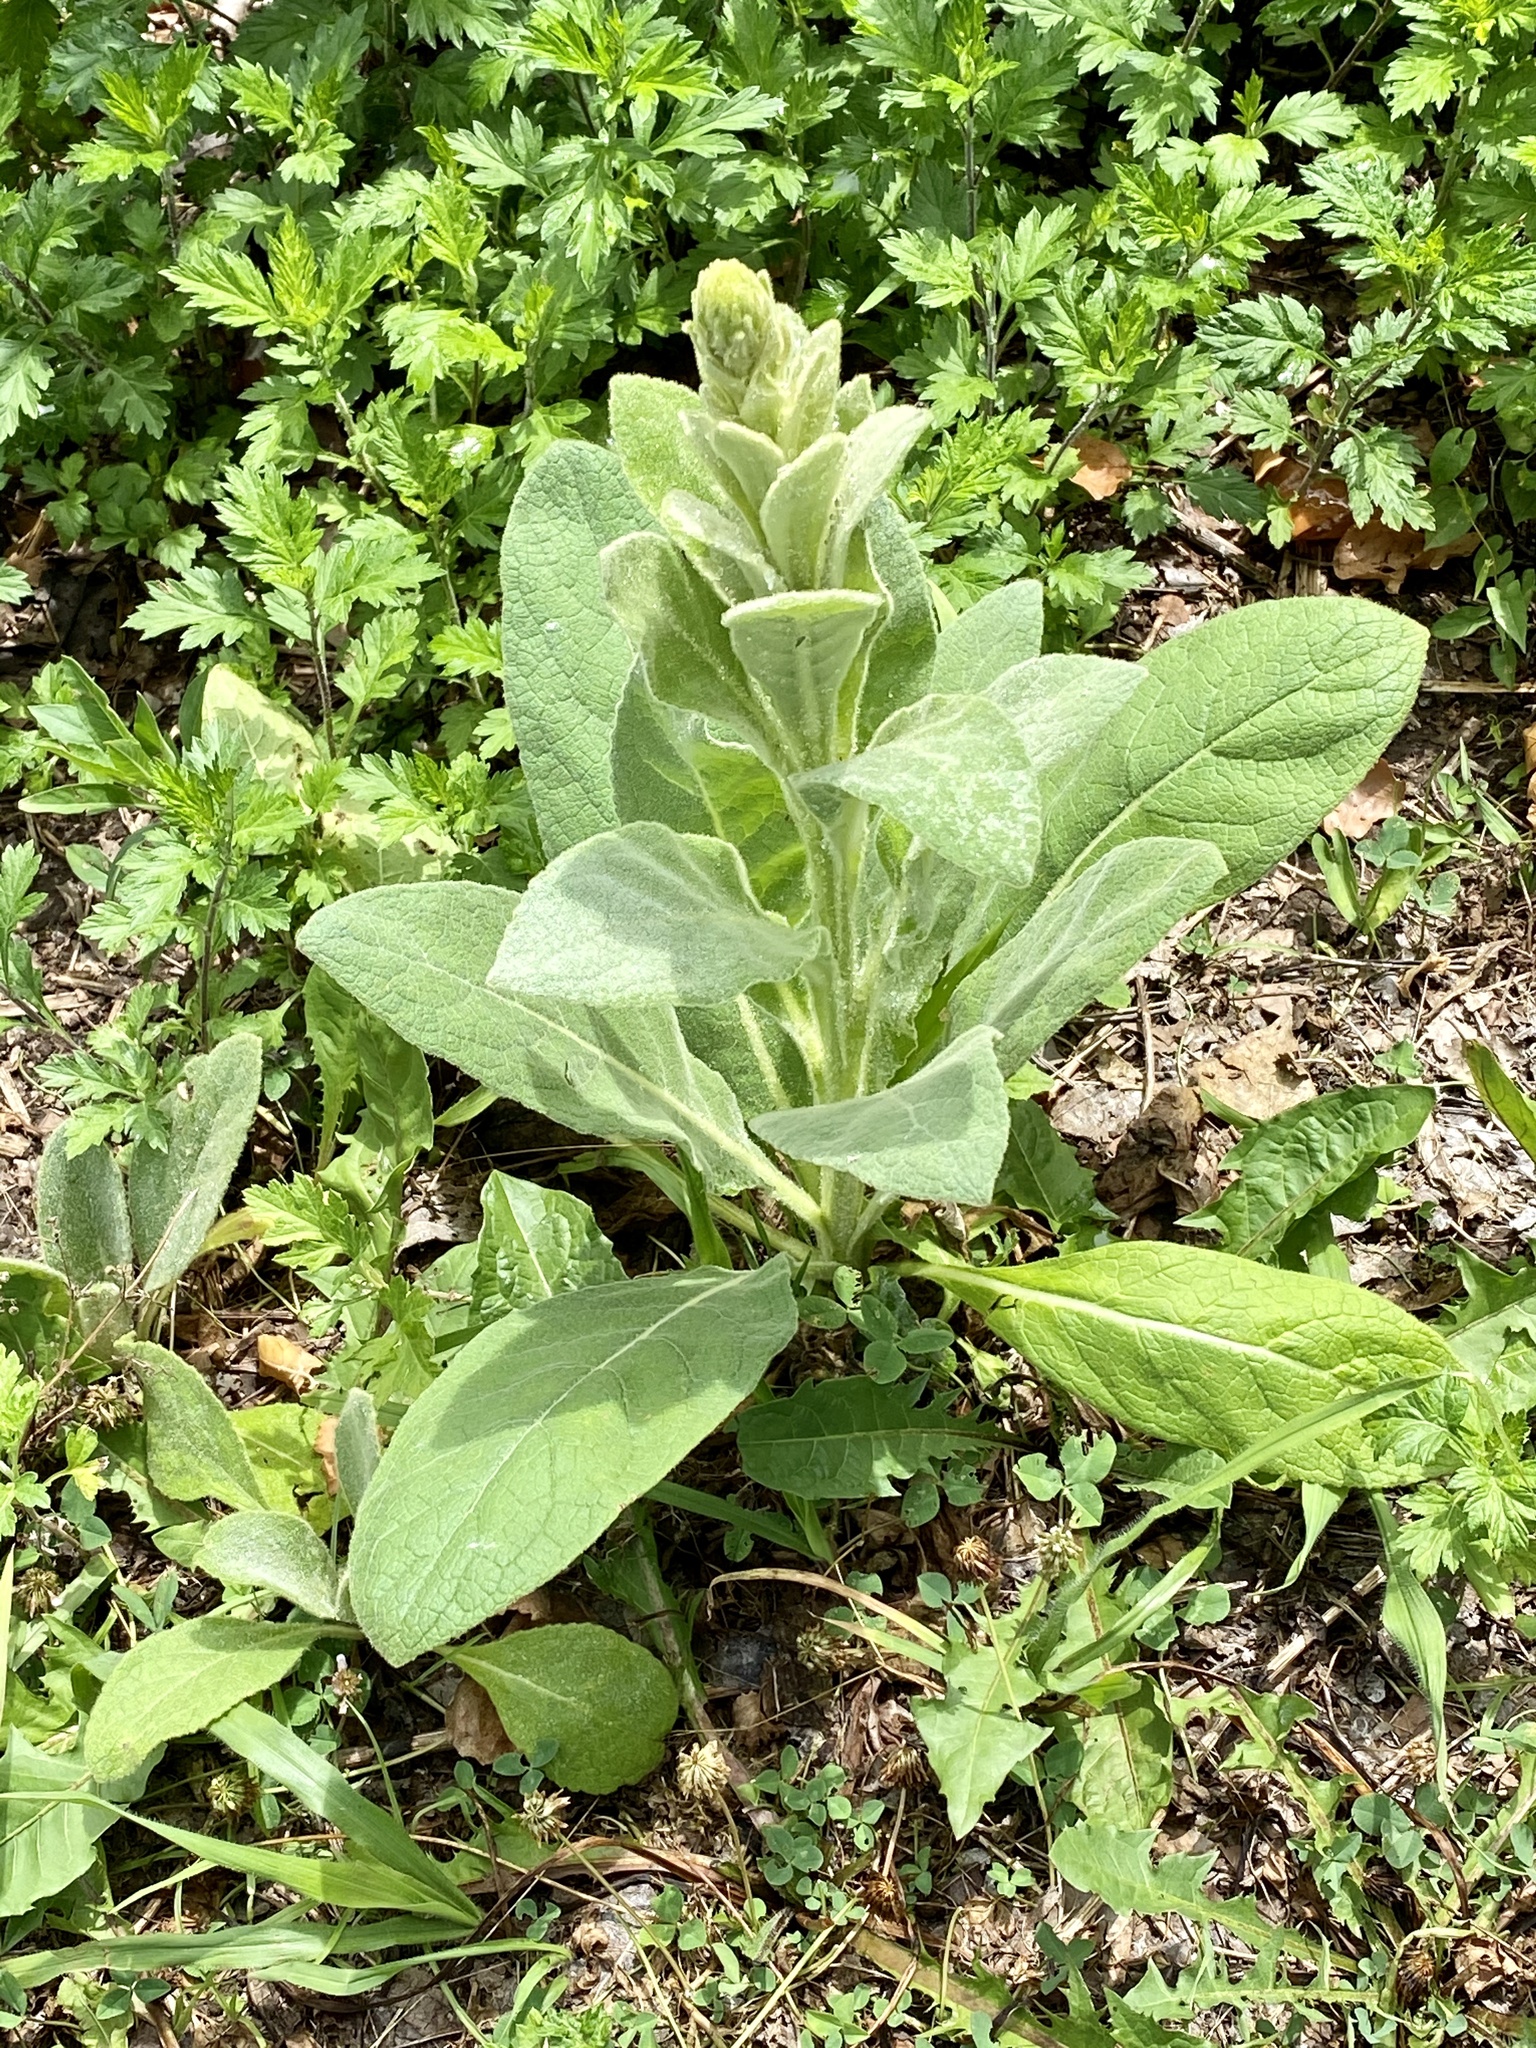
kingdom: Plantae
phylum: Tracheophyta
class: Magnoliopsida
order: Lamiales
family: Scrophulariaceae
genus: Verbascum
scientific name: Verbascum thapsus
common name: Common mullein
